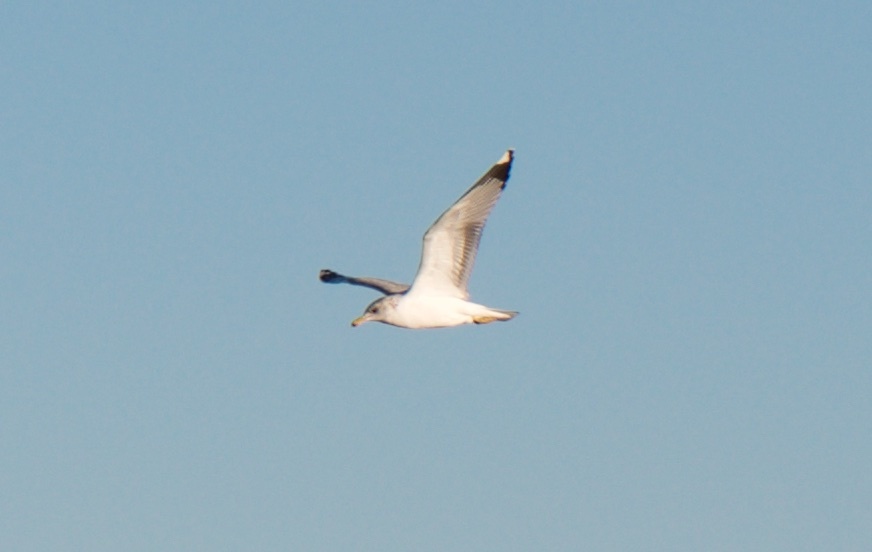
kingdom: Animalia
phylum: Chordata
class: Aves
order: Charadriiformes
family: Laridae
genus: Larus
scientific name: Larus californicus
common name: California gull
